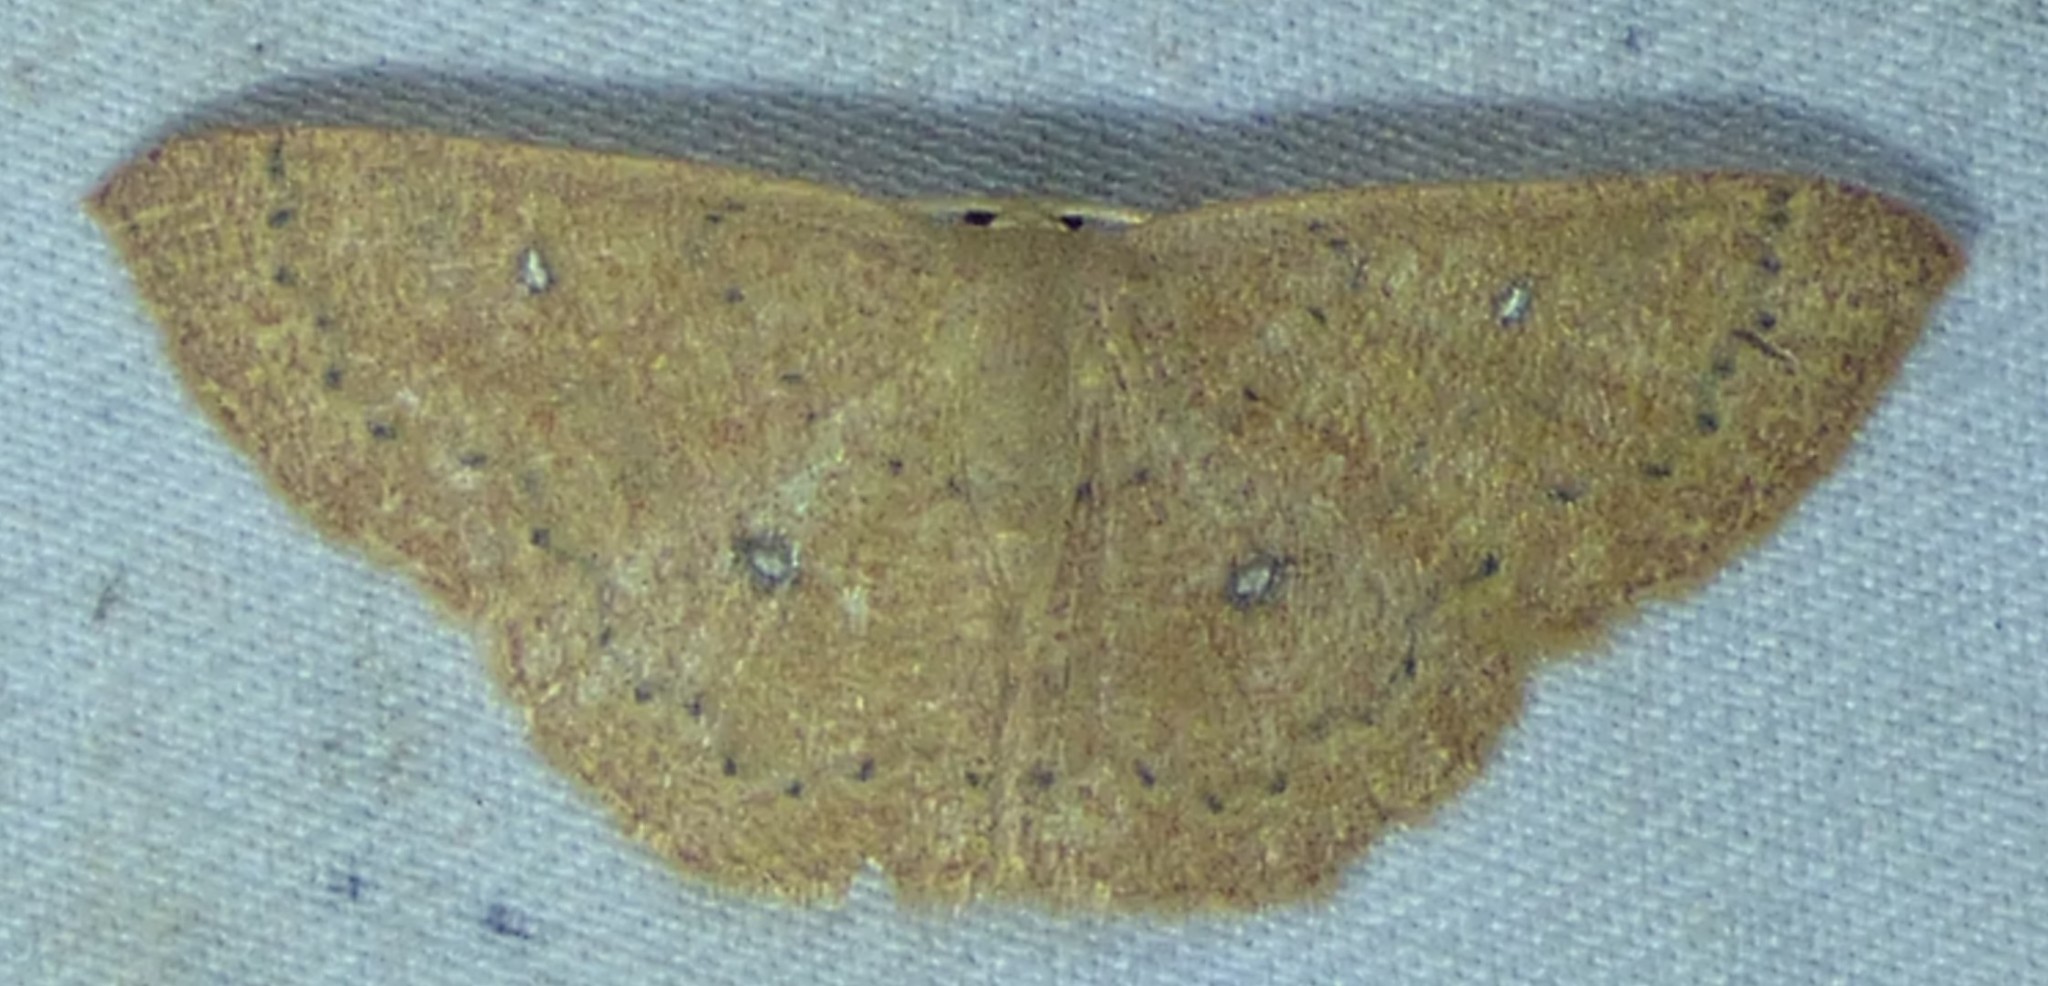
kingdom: Animalia
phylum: Arthropoda
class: Insecta
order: Lepidoptera
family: Geometridae
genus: Cyclophora
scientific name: Cyclophora packardi
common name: Packard's wave
